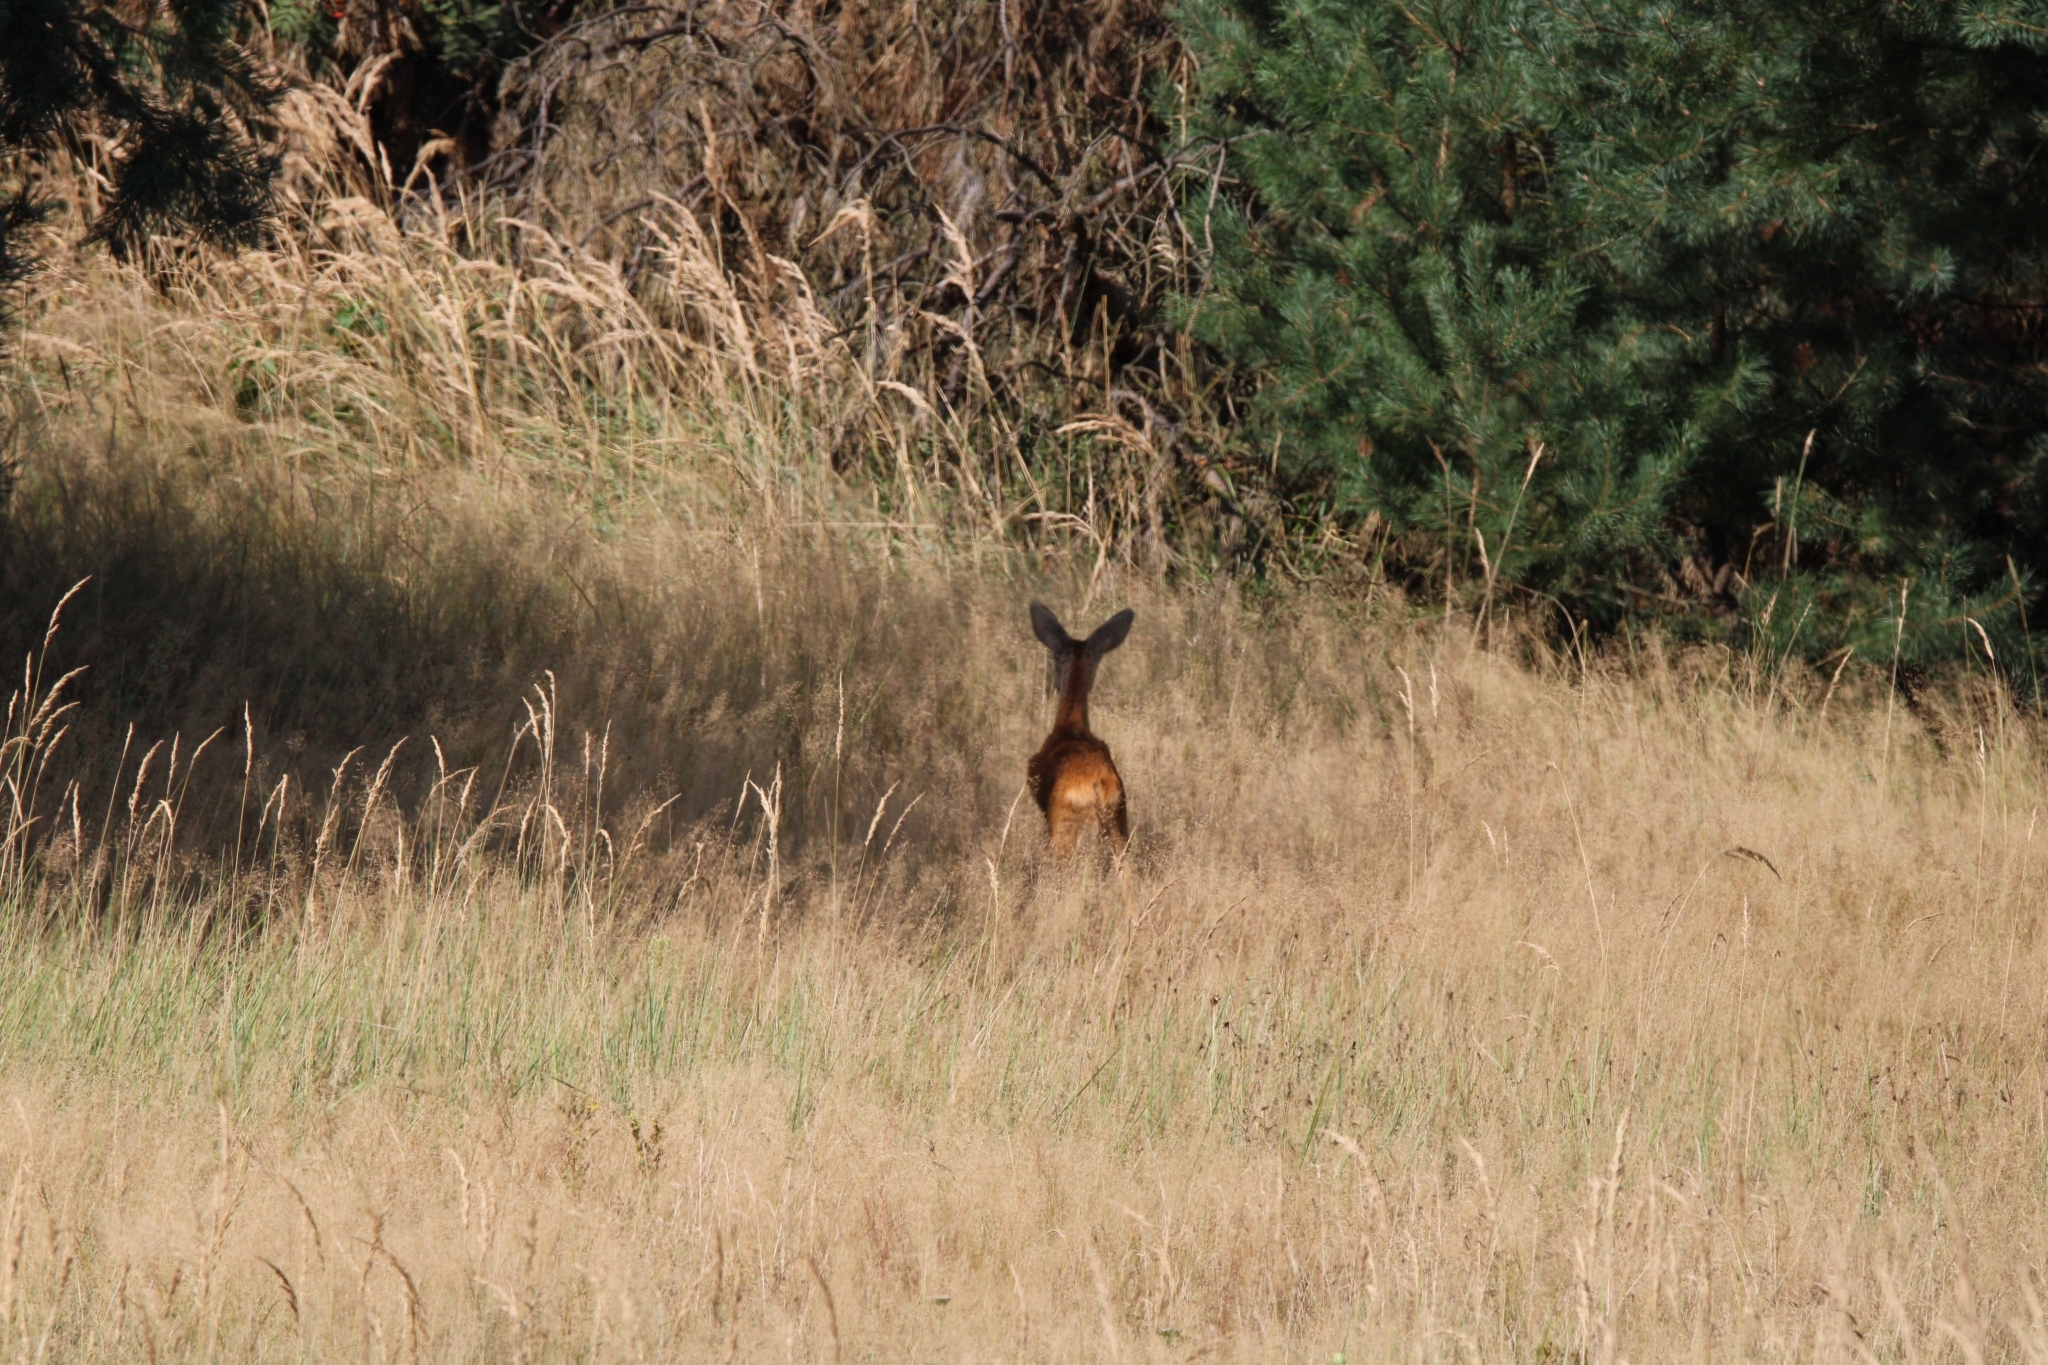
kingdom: Animalia
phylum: Chordata
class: Mammalia
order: Artiodactyla
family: Cervidae
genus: Capreolus
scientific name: Capreolus capreolus
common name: Western roe deer
